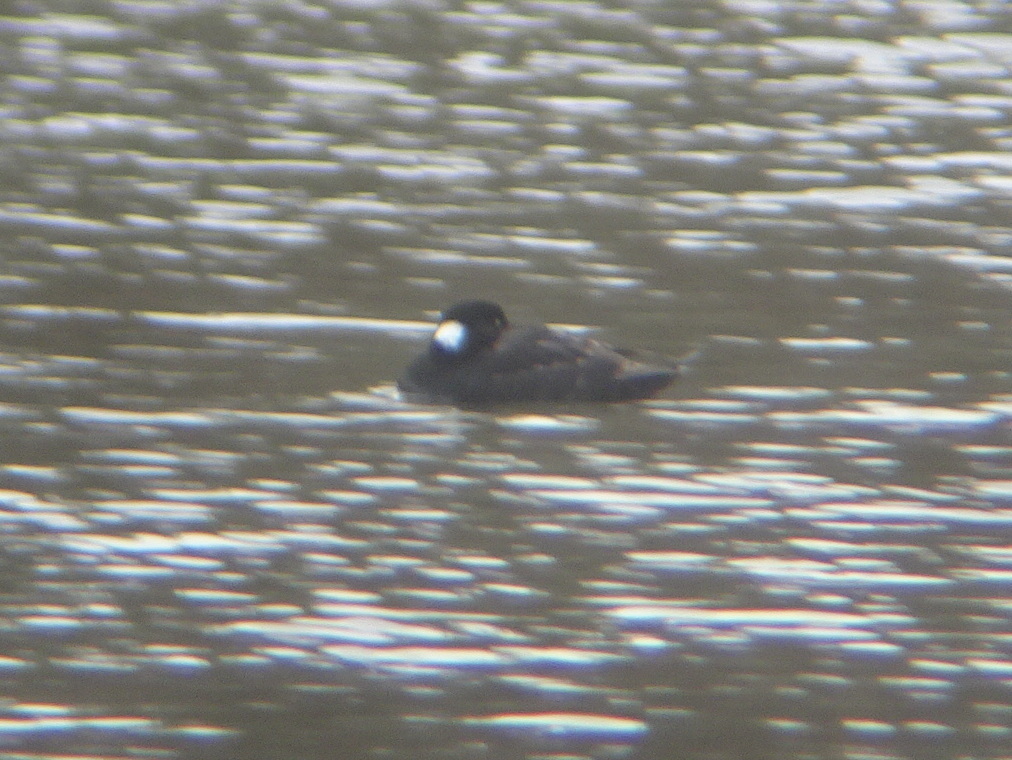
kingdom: Animalia
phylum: Chordata
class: Aves
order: Anseriformes
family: Anatidae
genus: Melanitta
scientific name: Melanitta perspicillata
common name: Surf scoter
